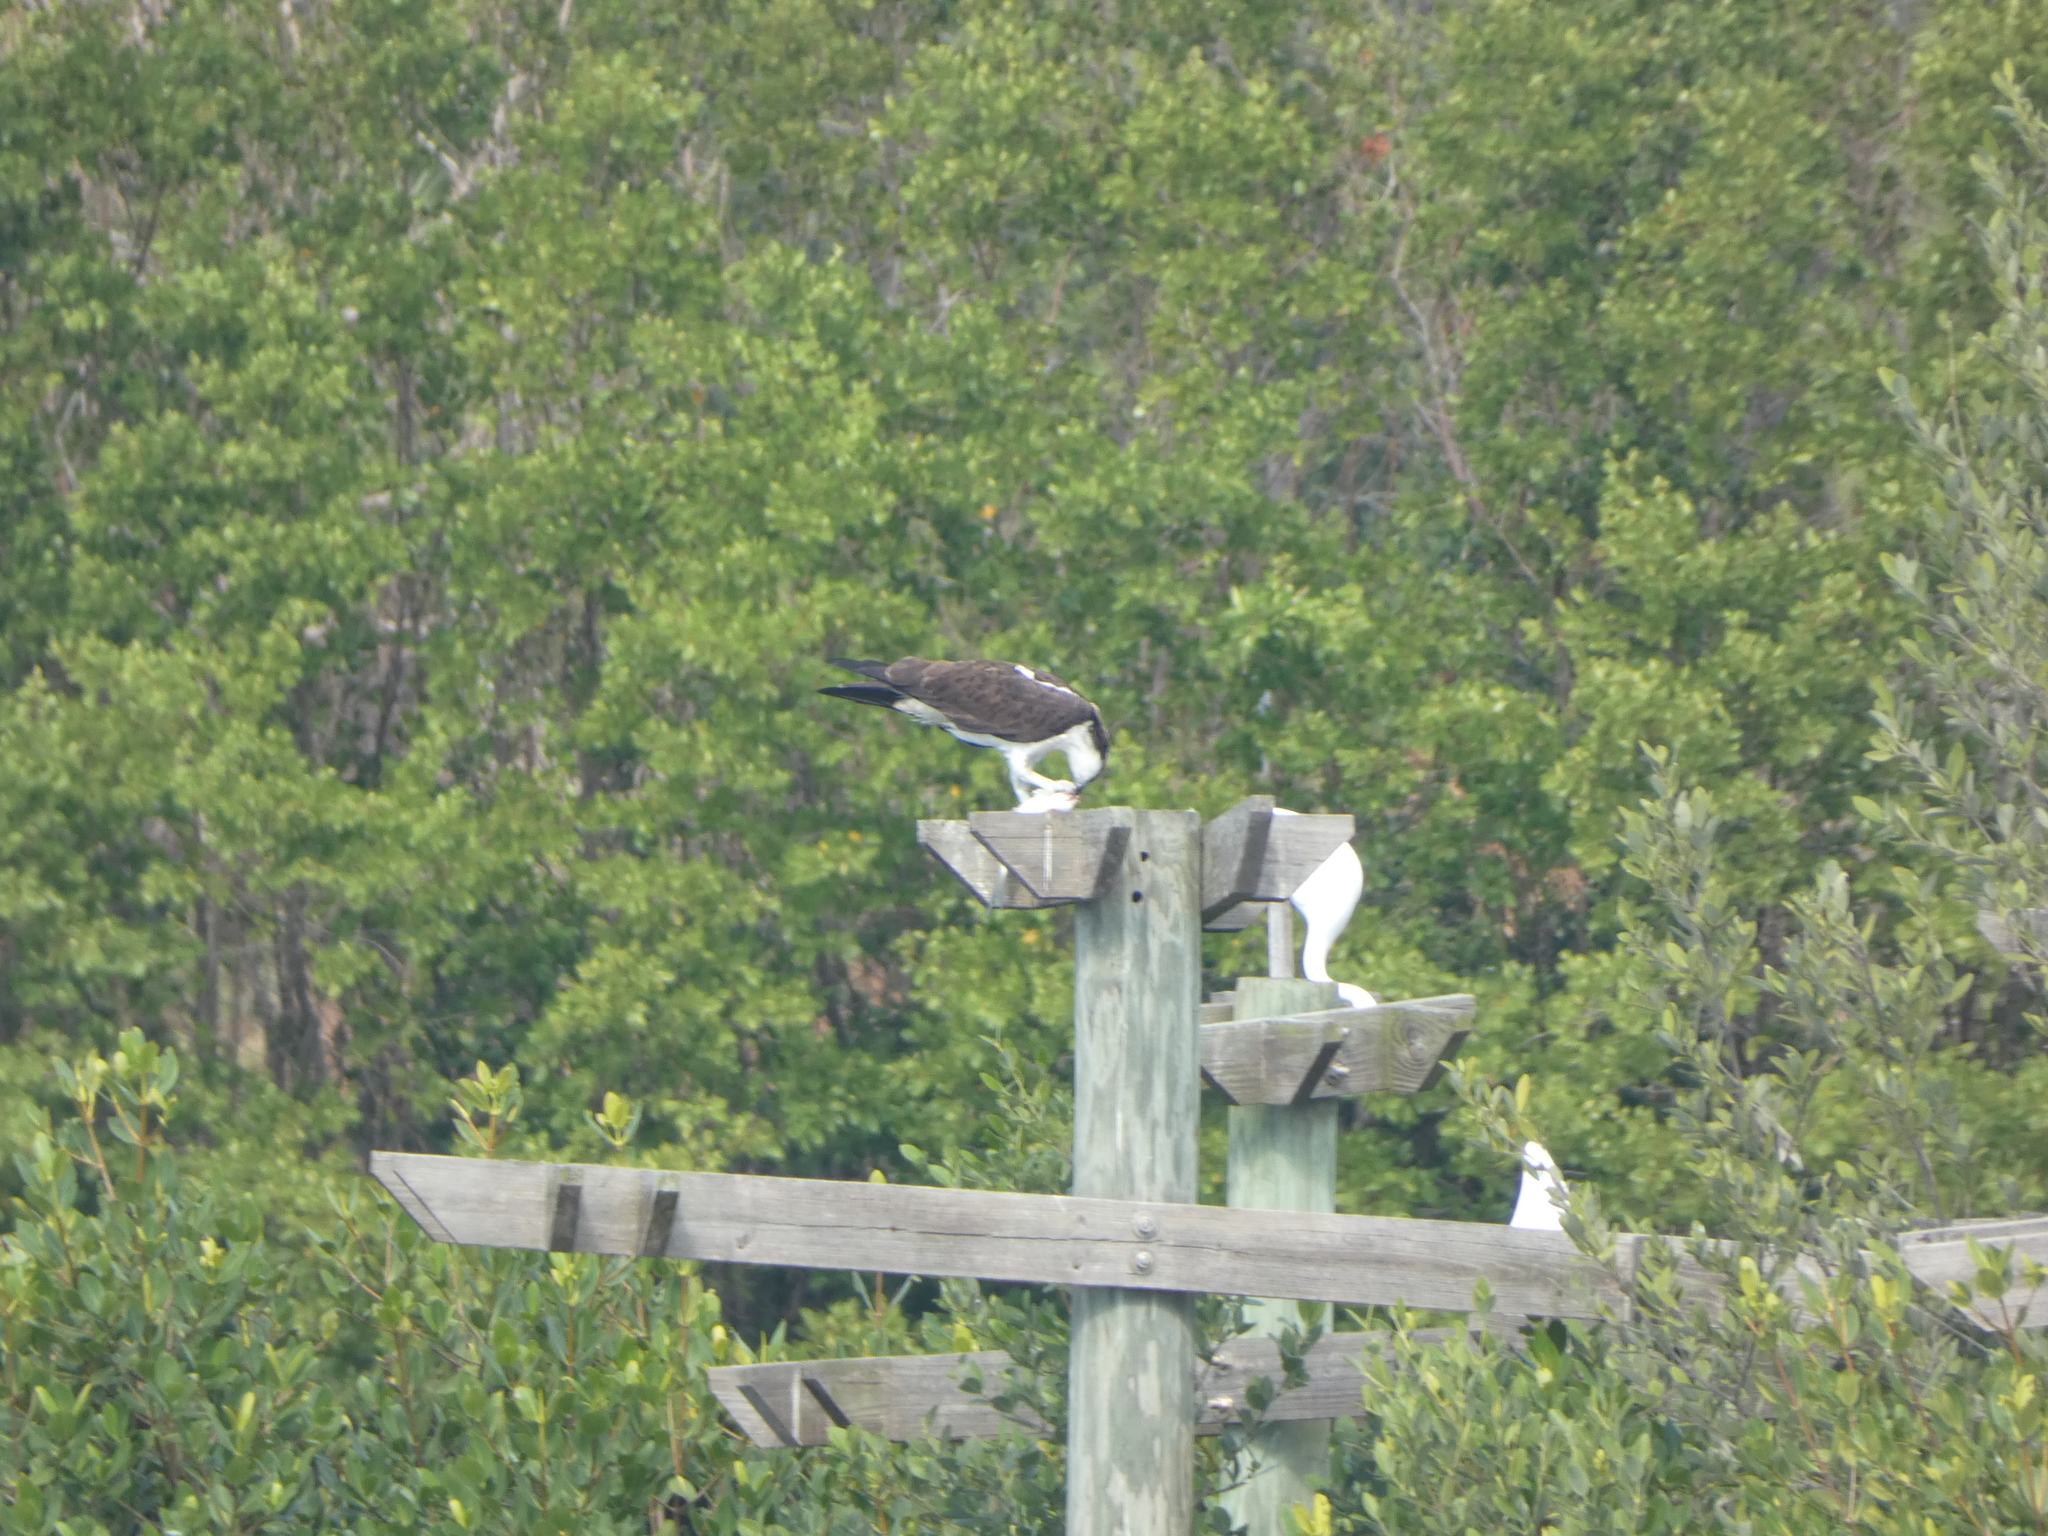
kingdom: Animalia
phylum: Chordata
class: Aves
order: Accipitriformes
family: Pandionidae
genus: Pandion
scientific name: Pandion haliaetus
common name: Osprey
